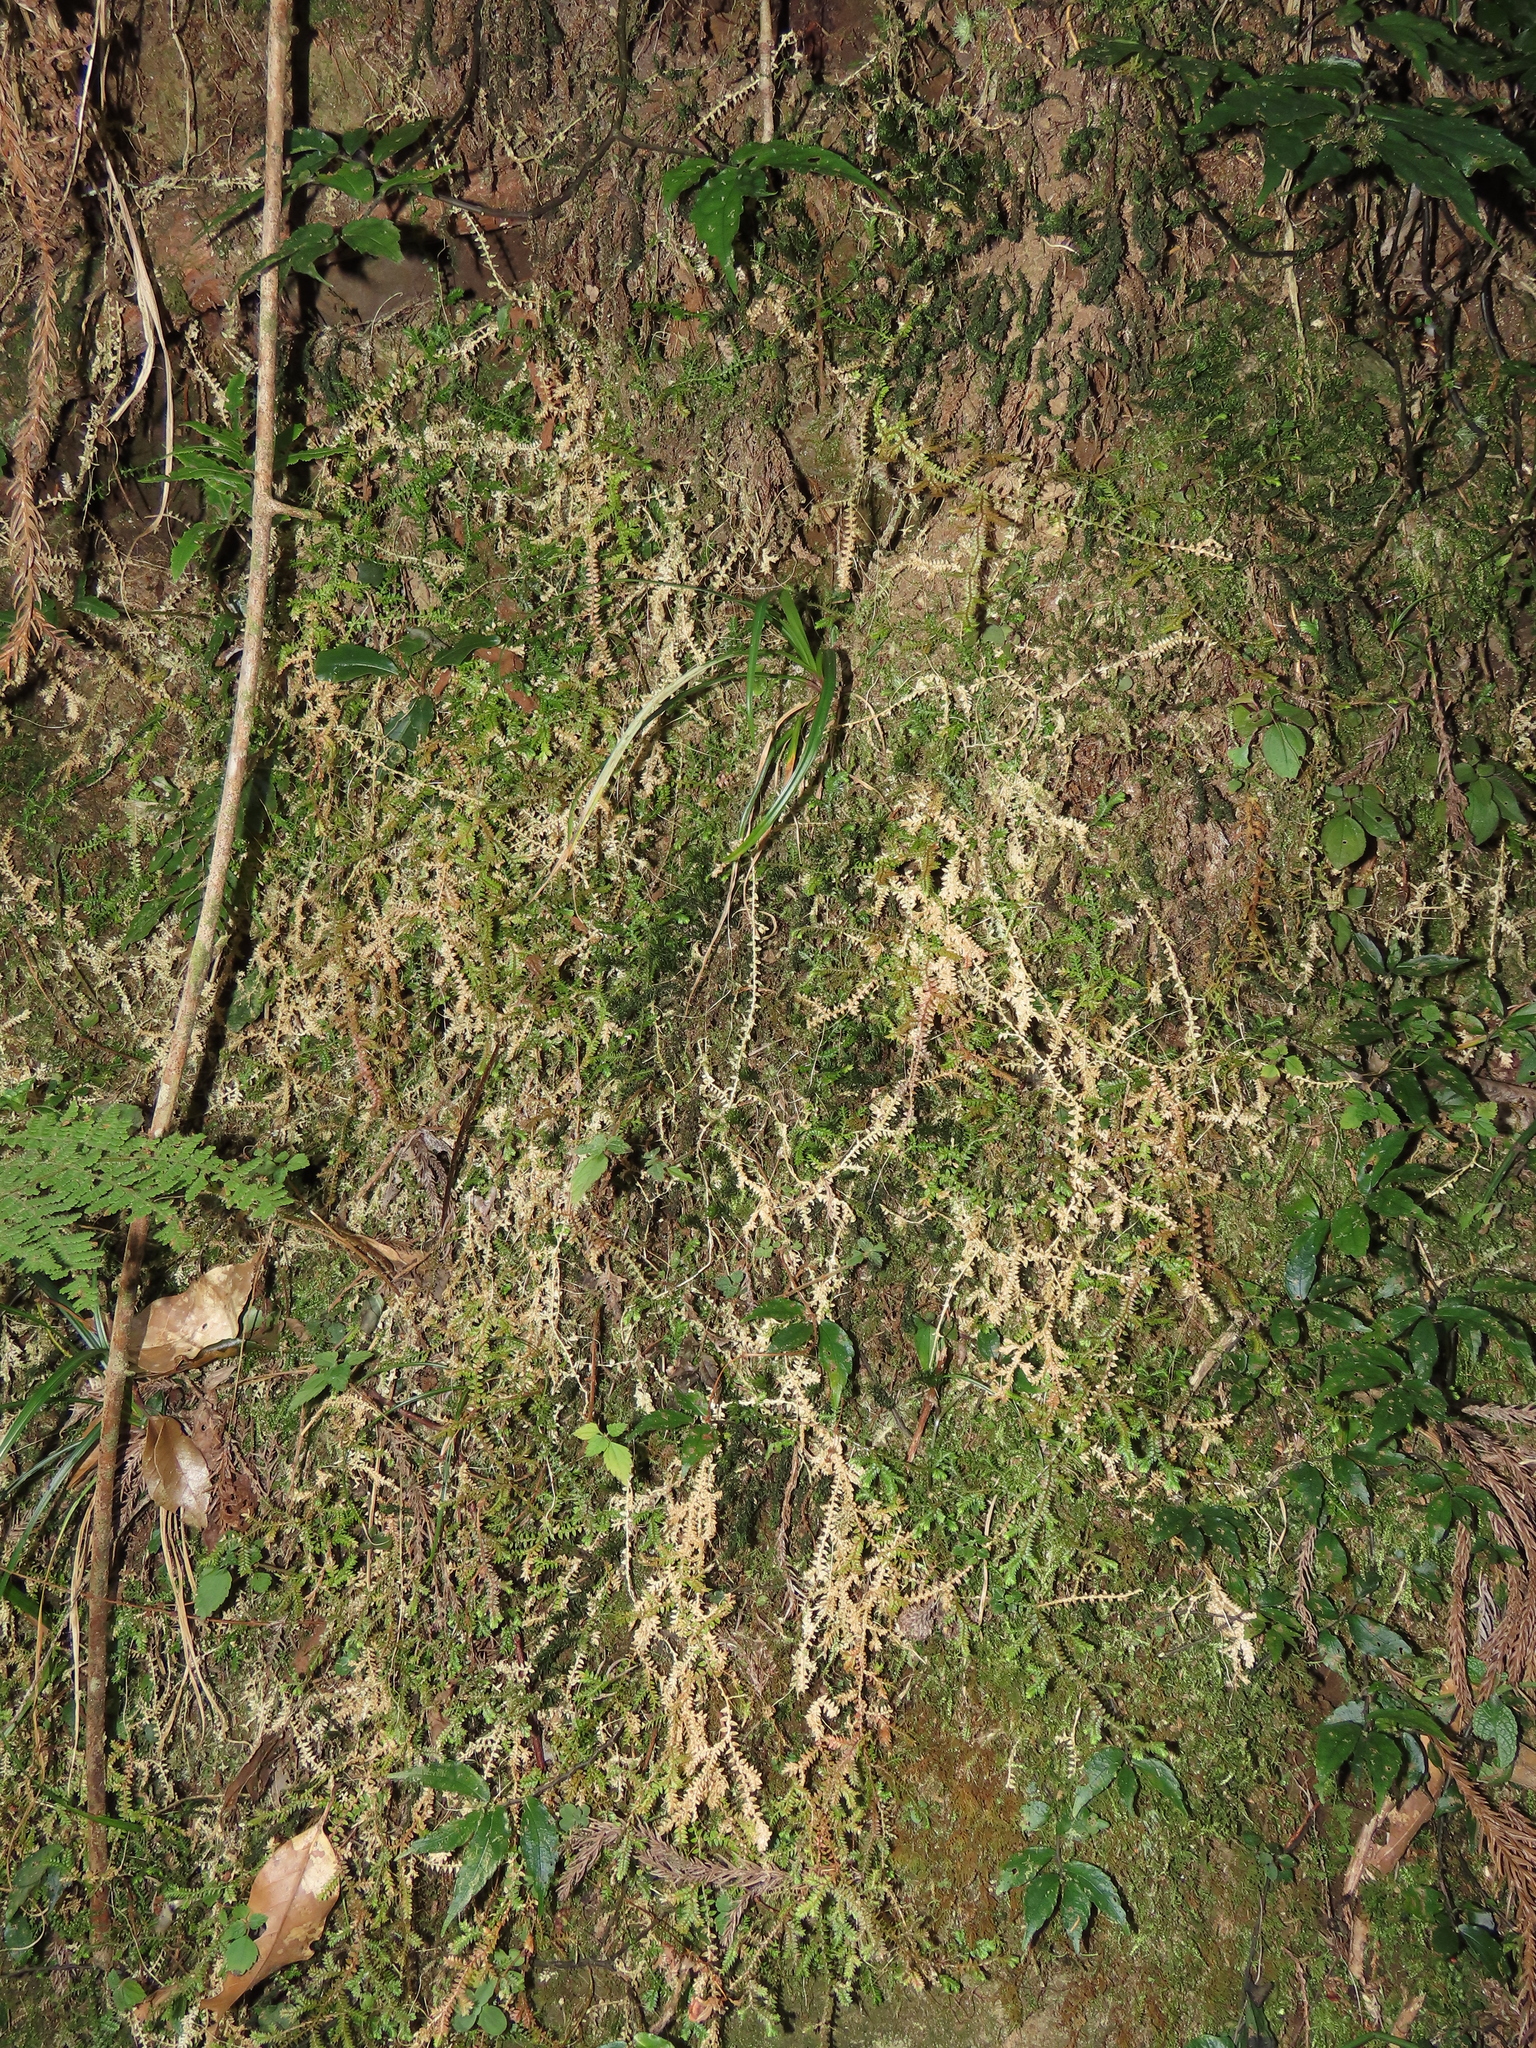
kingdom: Plantae
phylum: Tracheophyta
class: Lycopodiopsida
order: Selaginellales
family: Selaginellaceae
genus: Selaginella
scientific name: Selaginella remotifolia
